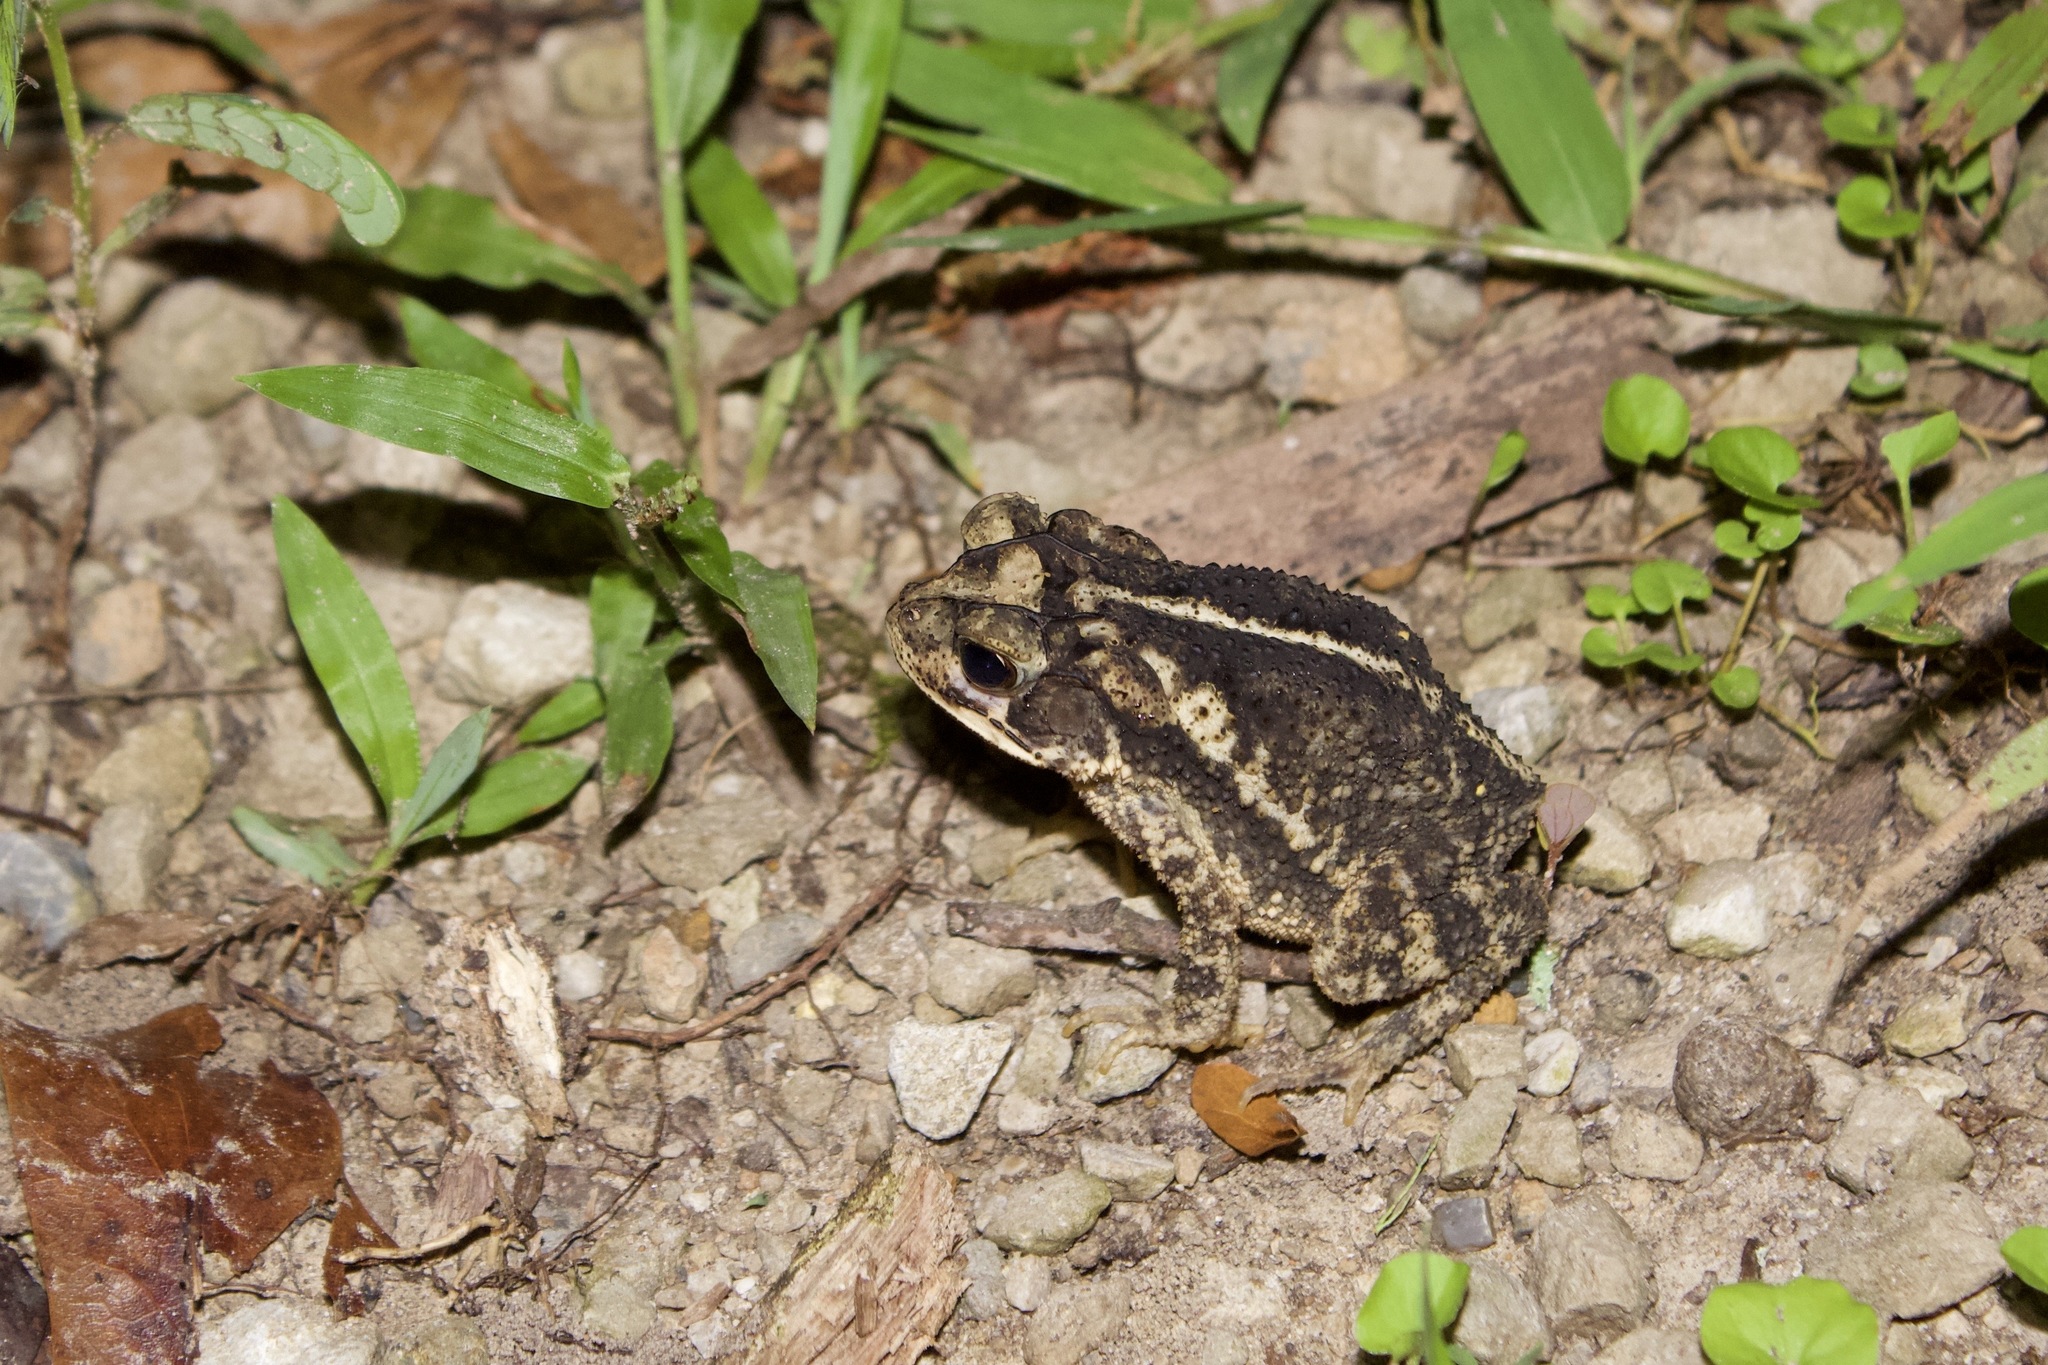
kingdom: Animalia
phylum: Chordata
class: Amphibia
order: Anura
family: Bufonidae
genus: Incilius
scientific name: Incilius nebulifer
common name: Gulf coast toad
